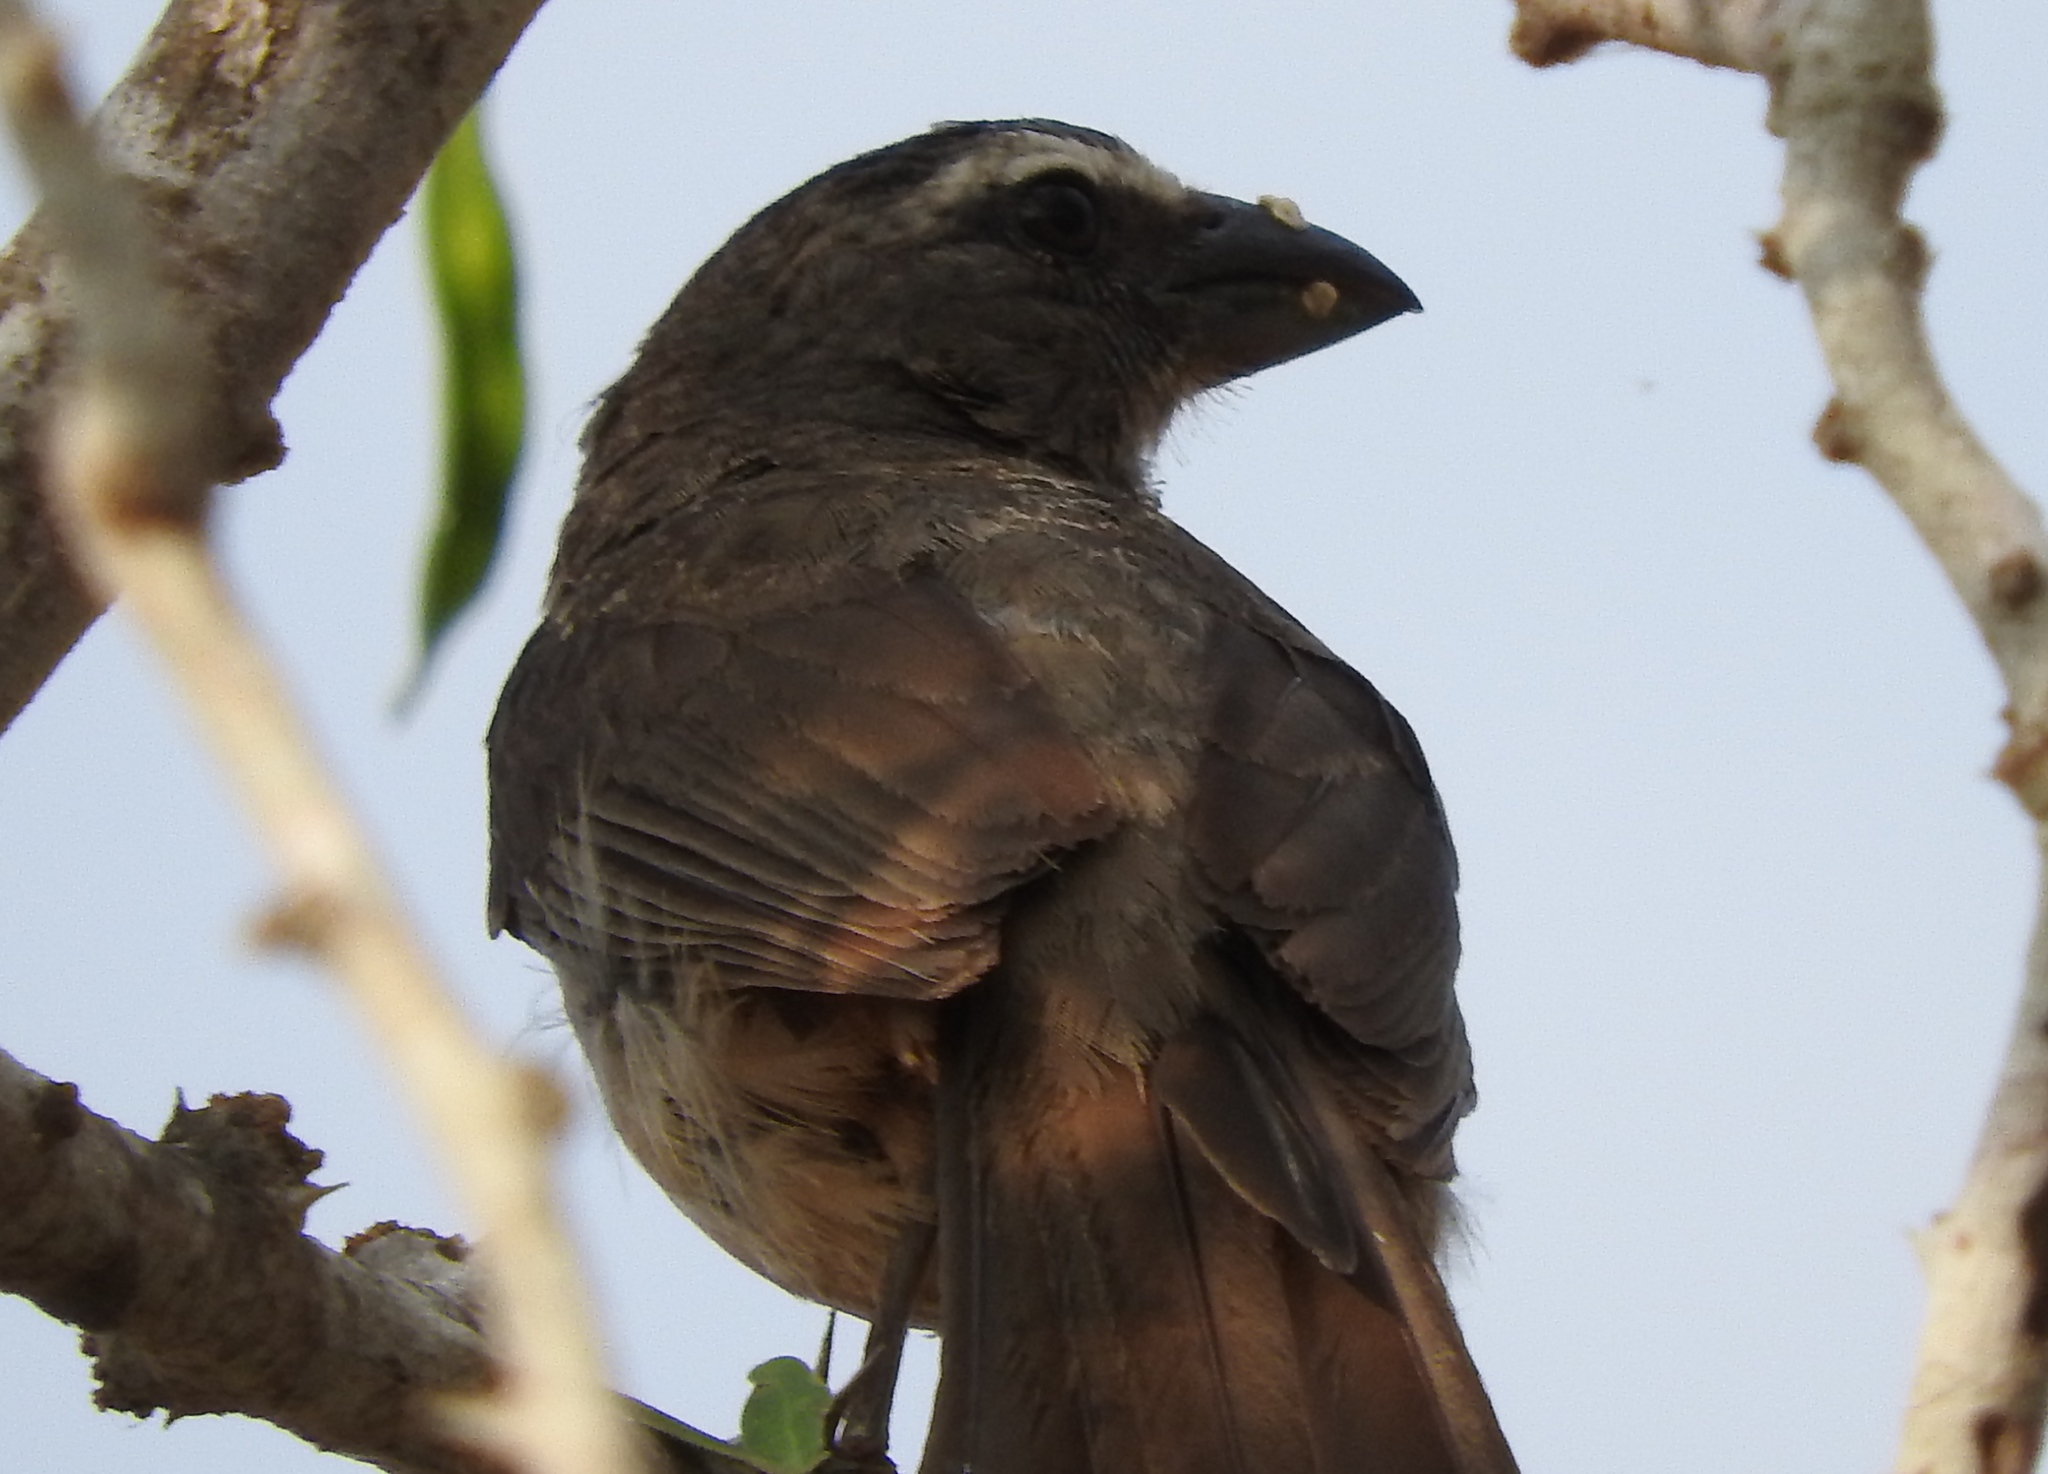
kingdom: Animalia
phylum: Chordata
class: Aves
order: Passeriformes
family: Thraupidae
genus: Saltator
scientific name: Saltator grandis
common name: Cinnamon-bellied saltator
